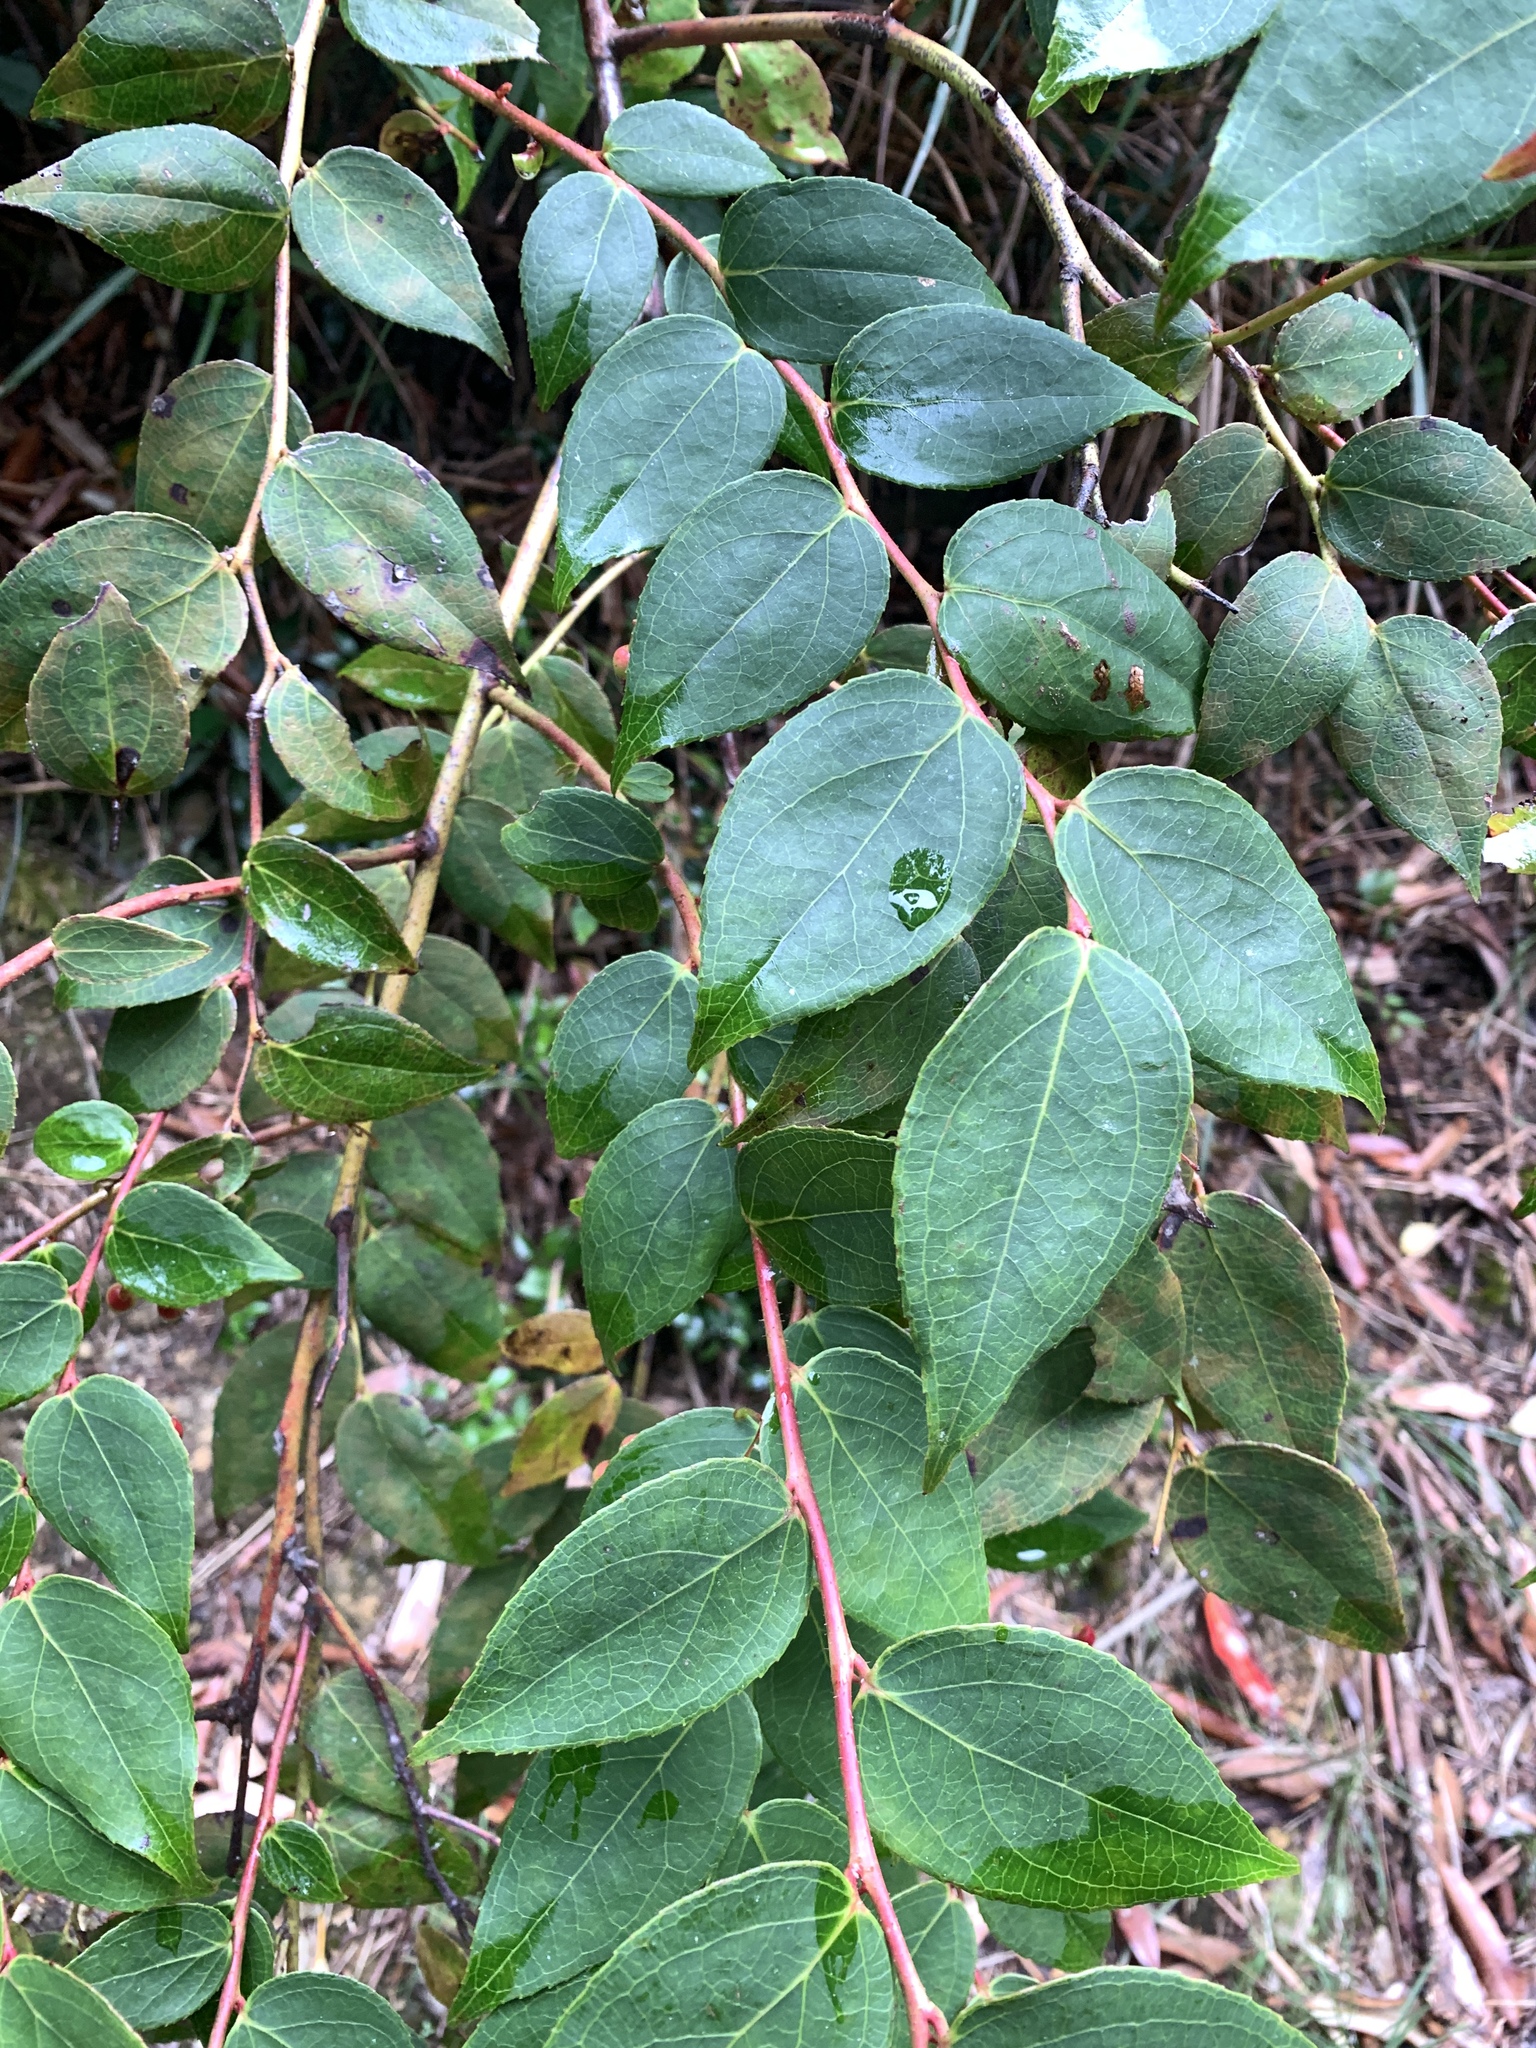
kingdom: Plantae
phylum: Tracheophyta
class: Magnoliopsida
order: Ericales
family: Ericaceae
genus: Gaultheria
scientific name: Gaultheria leucocarpa
